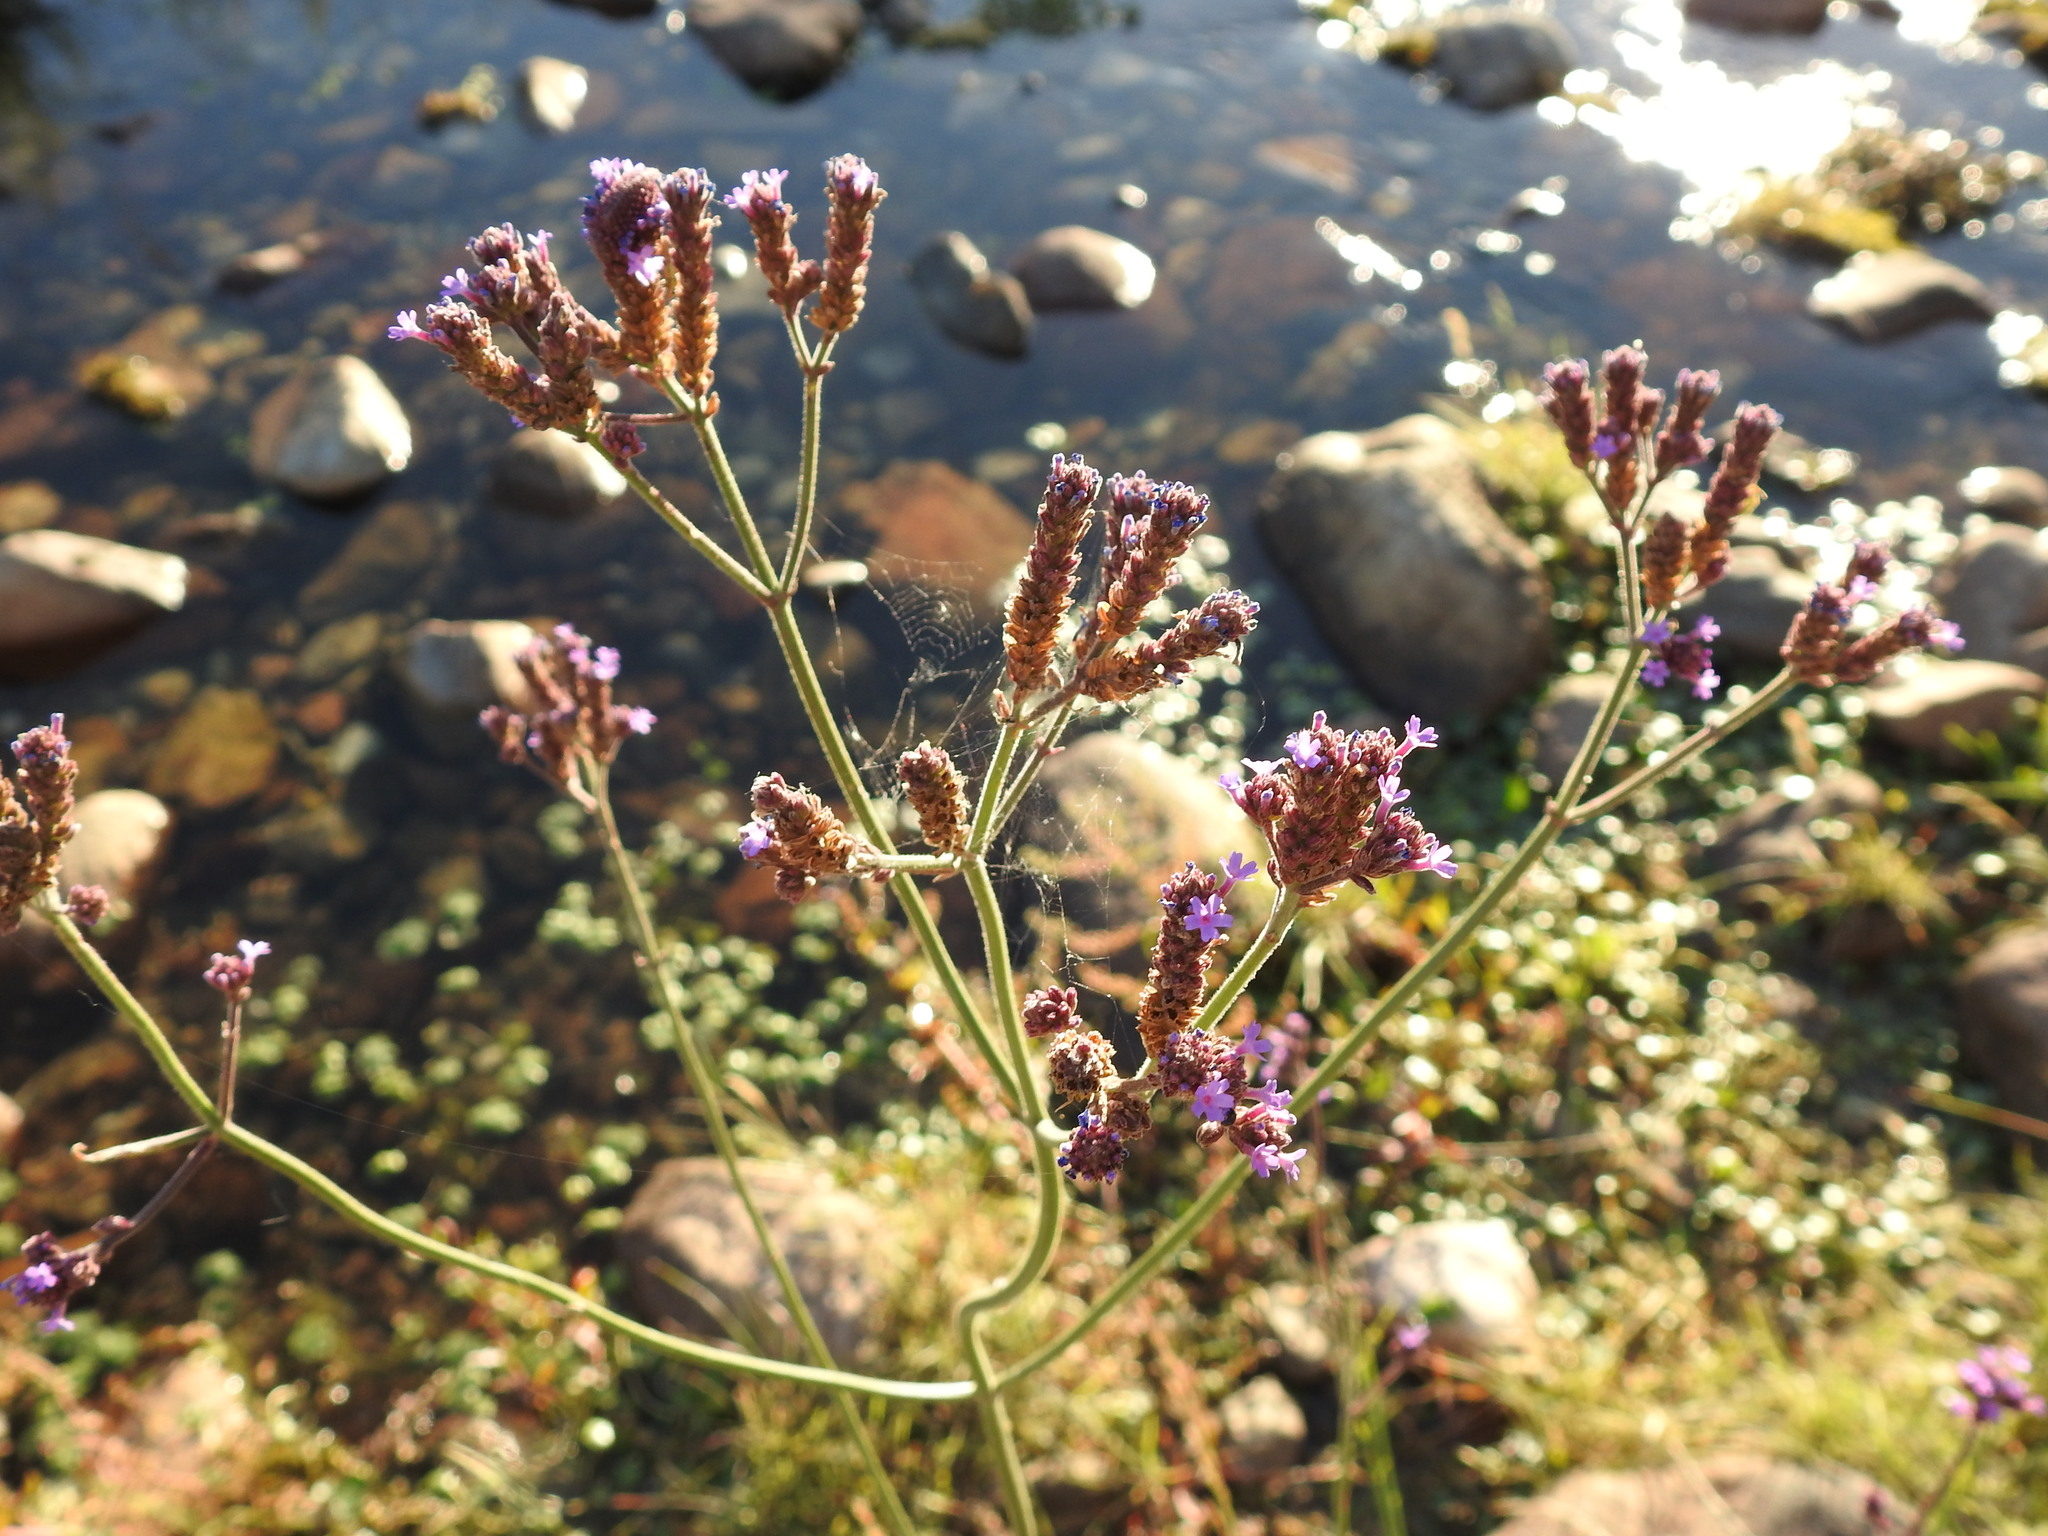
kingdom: Plantae
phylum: Tracheophyta
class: Magnoliopsida
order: Lamiales
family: Verbenaceae
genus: Verbena
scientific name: Verbena bonariensis
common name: Purpletop vervain
